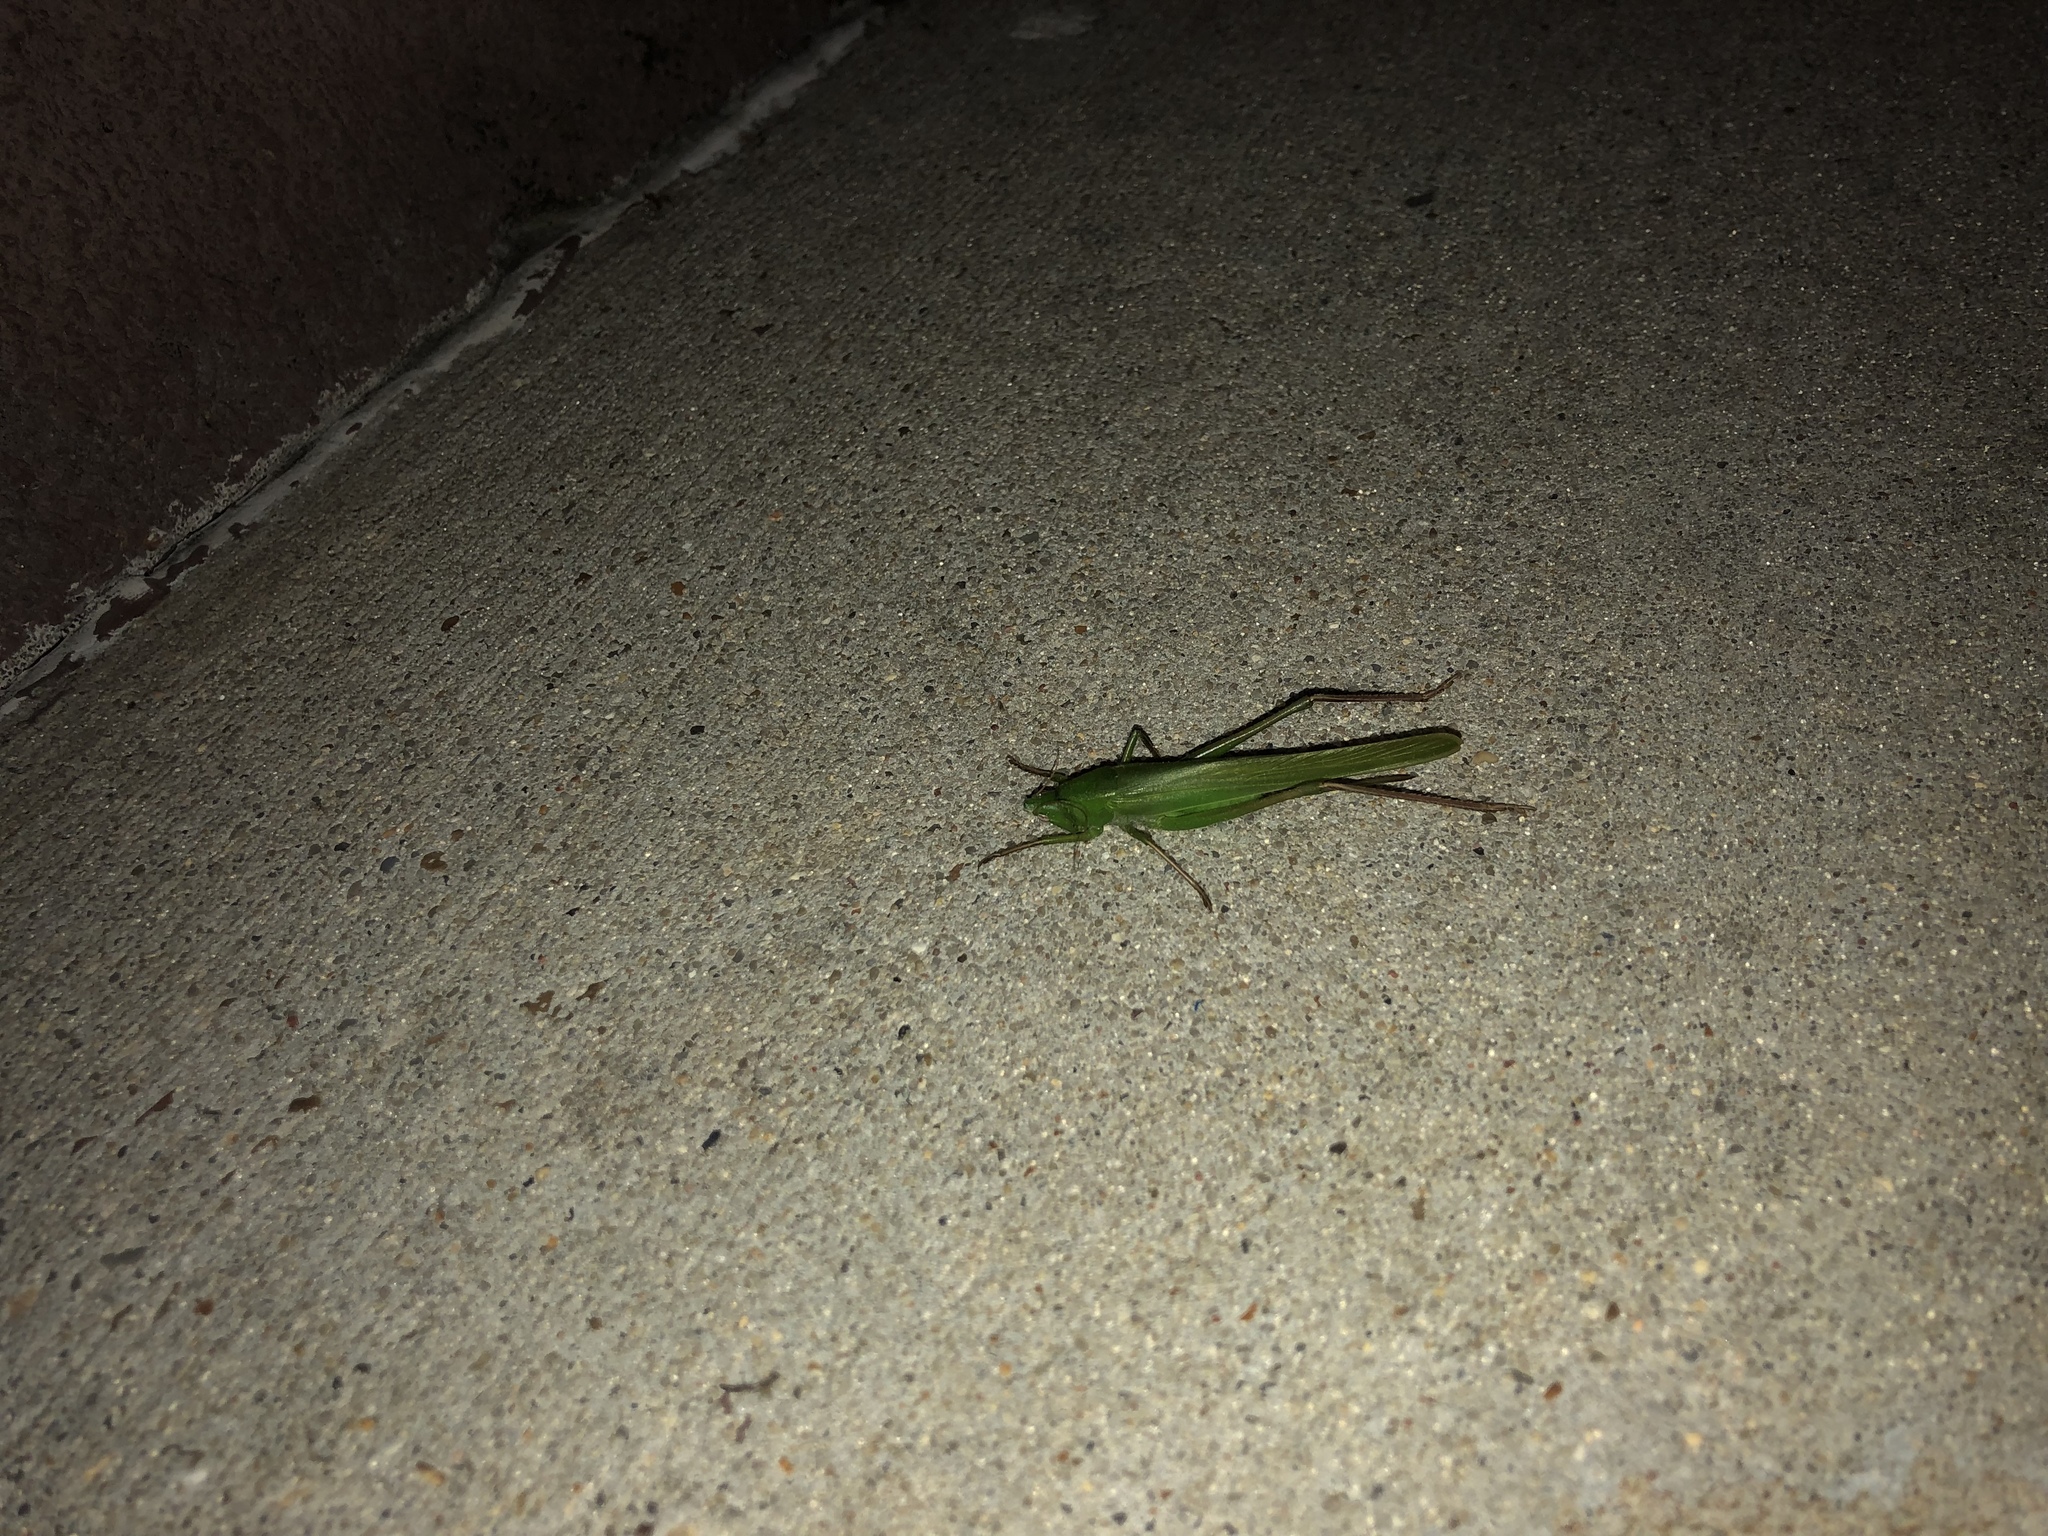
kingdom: Animalia
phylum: Arthropoda
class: Insecta
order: Orthoptera
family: Tettigoniidae
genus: Neoconocephalus
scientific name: Neoconocephalus triops
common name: Broad-tipped conehead
